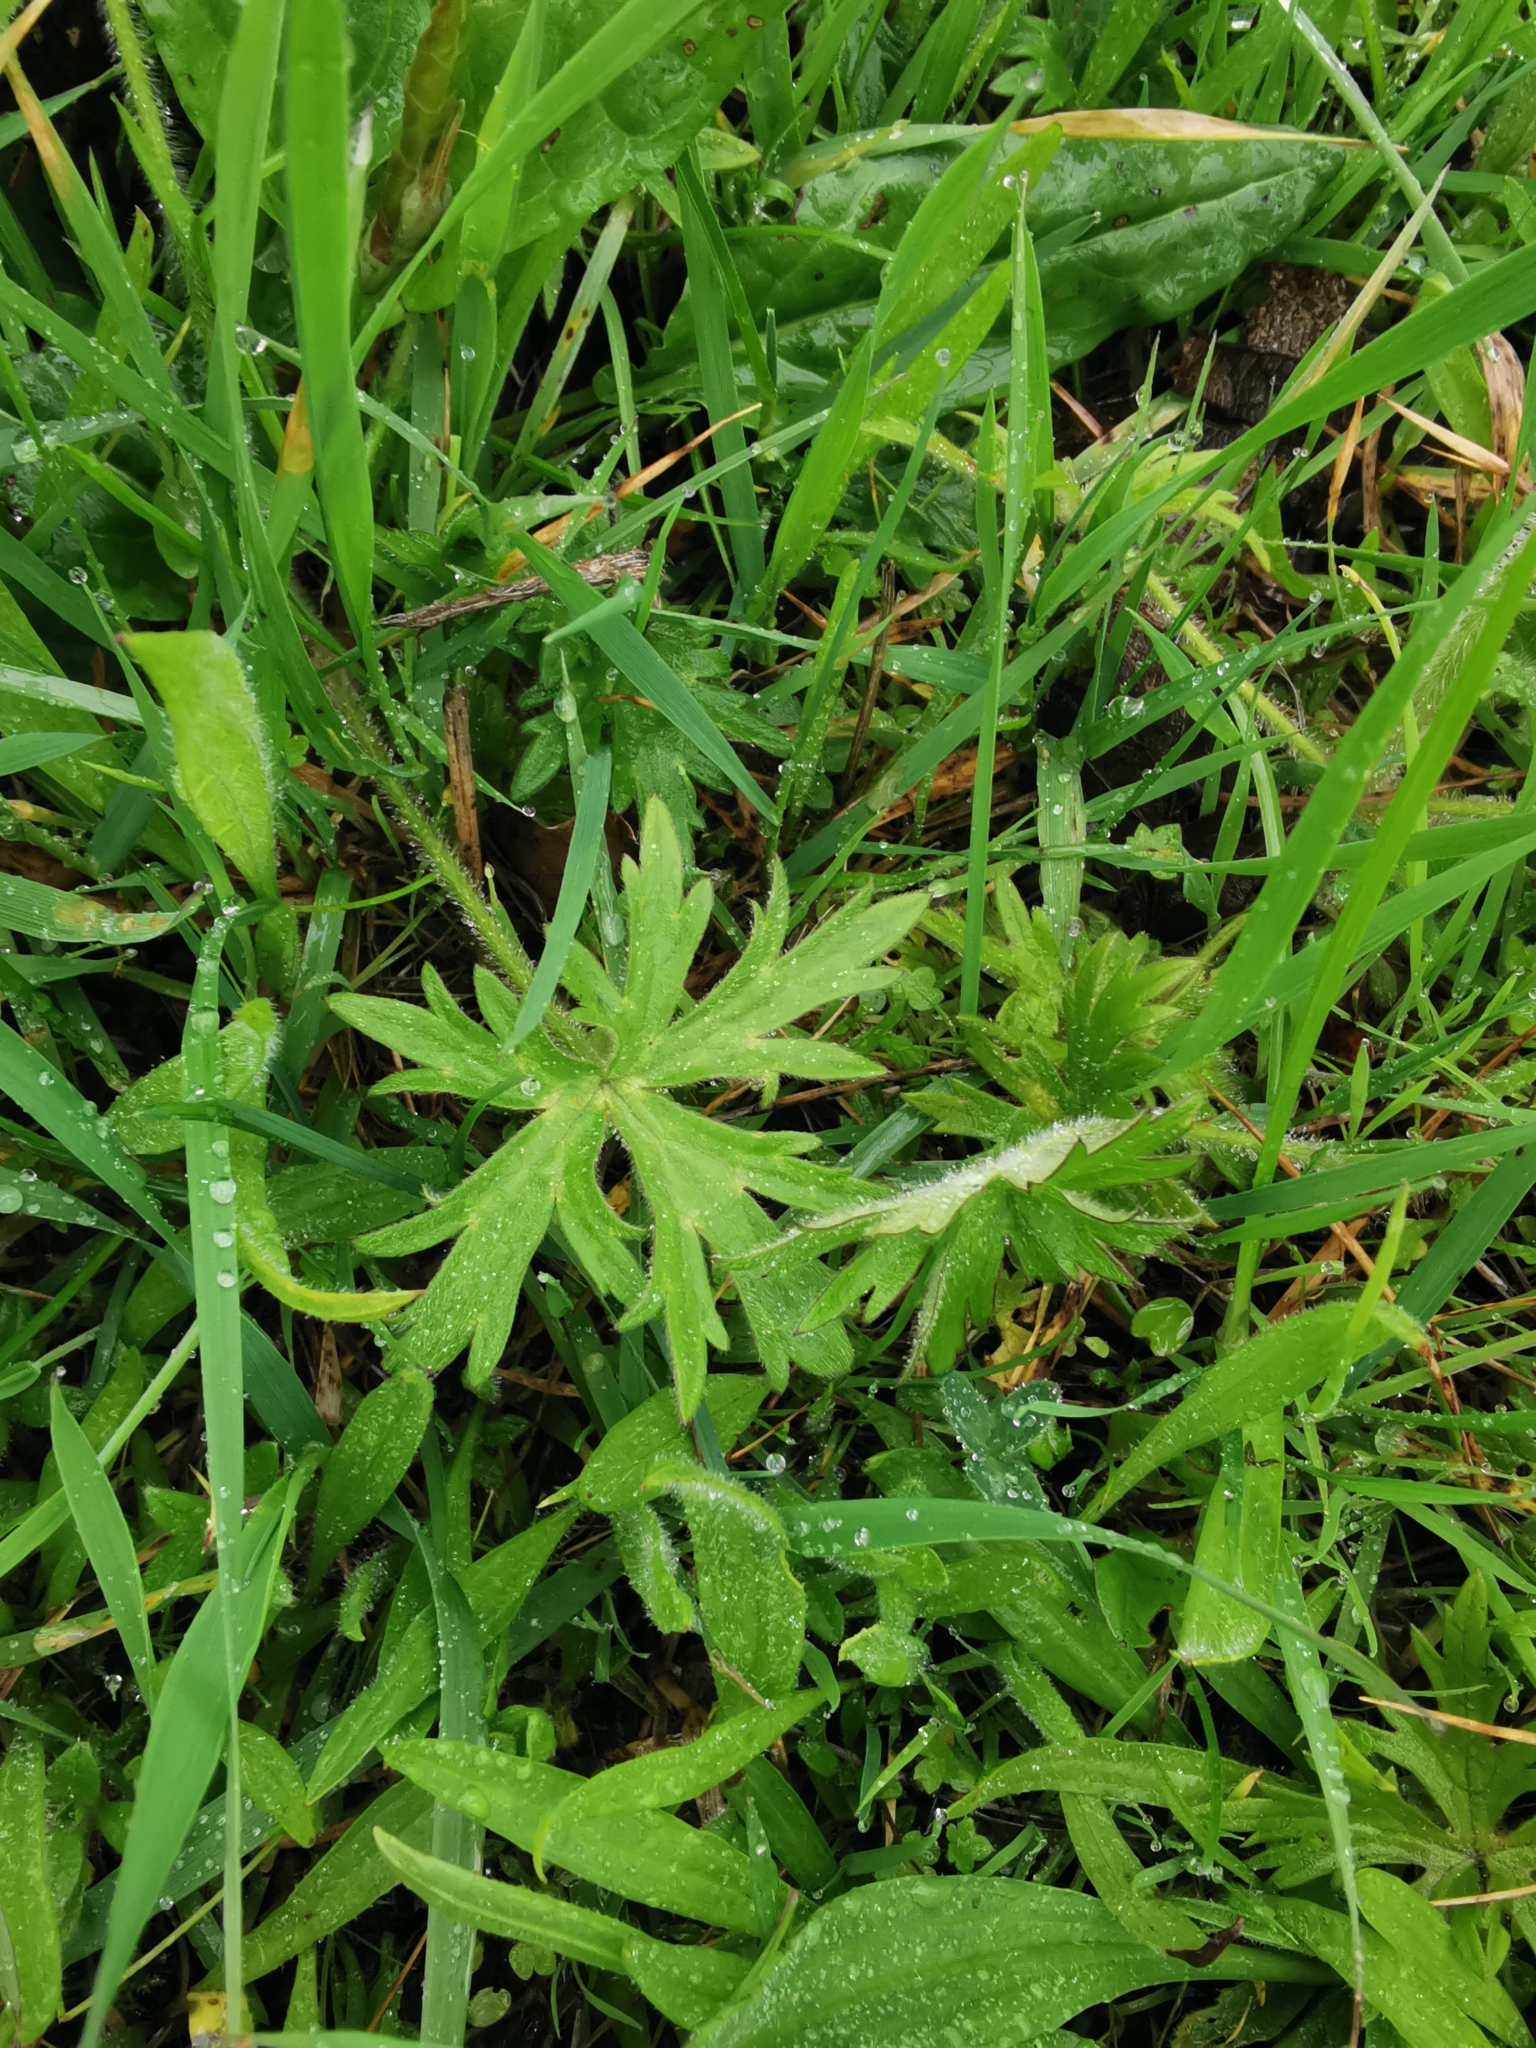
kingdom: Plantae
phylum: Tracheophyta
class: Magnoliopsida
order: Ranunculales
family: Ranunculaceae
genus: Ranunculus
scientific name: Ranunculus acris
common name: Meadow buttercup
